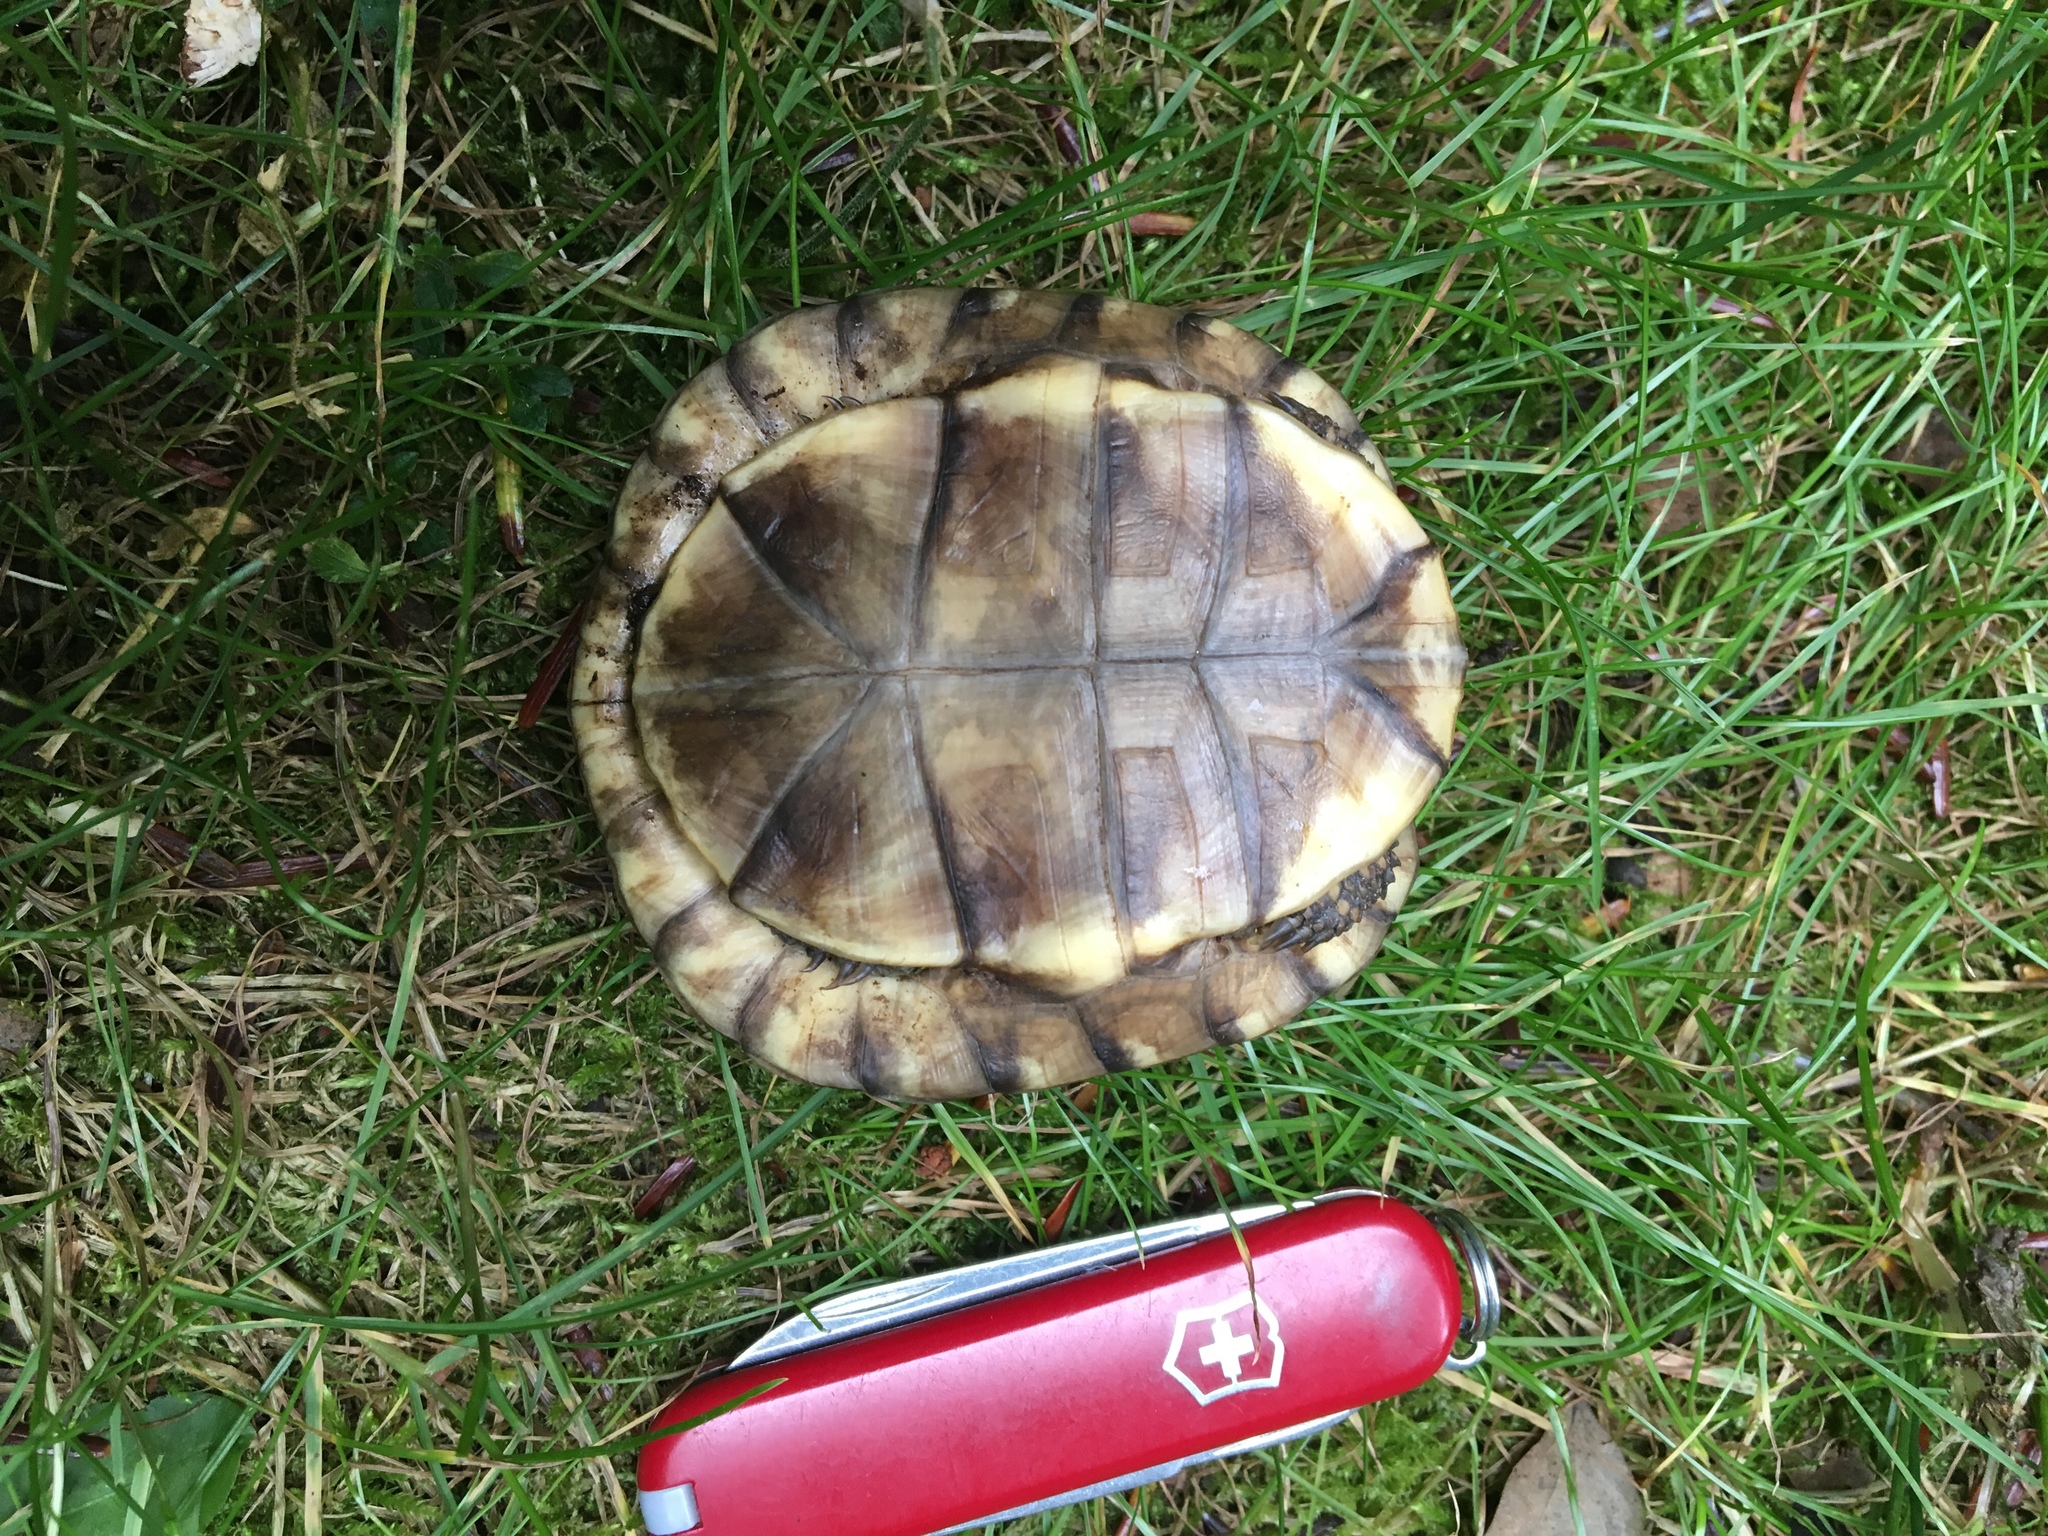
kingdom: Animalia
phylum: Chordata
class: Testudines
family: Emydidae
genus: Terrapene
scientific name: Terrapene carolina
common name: Common box turtle
